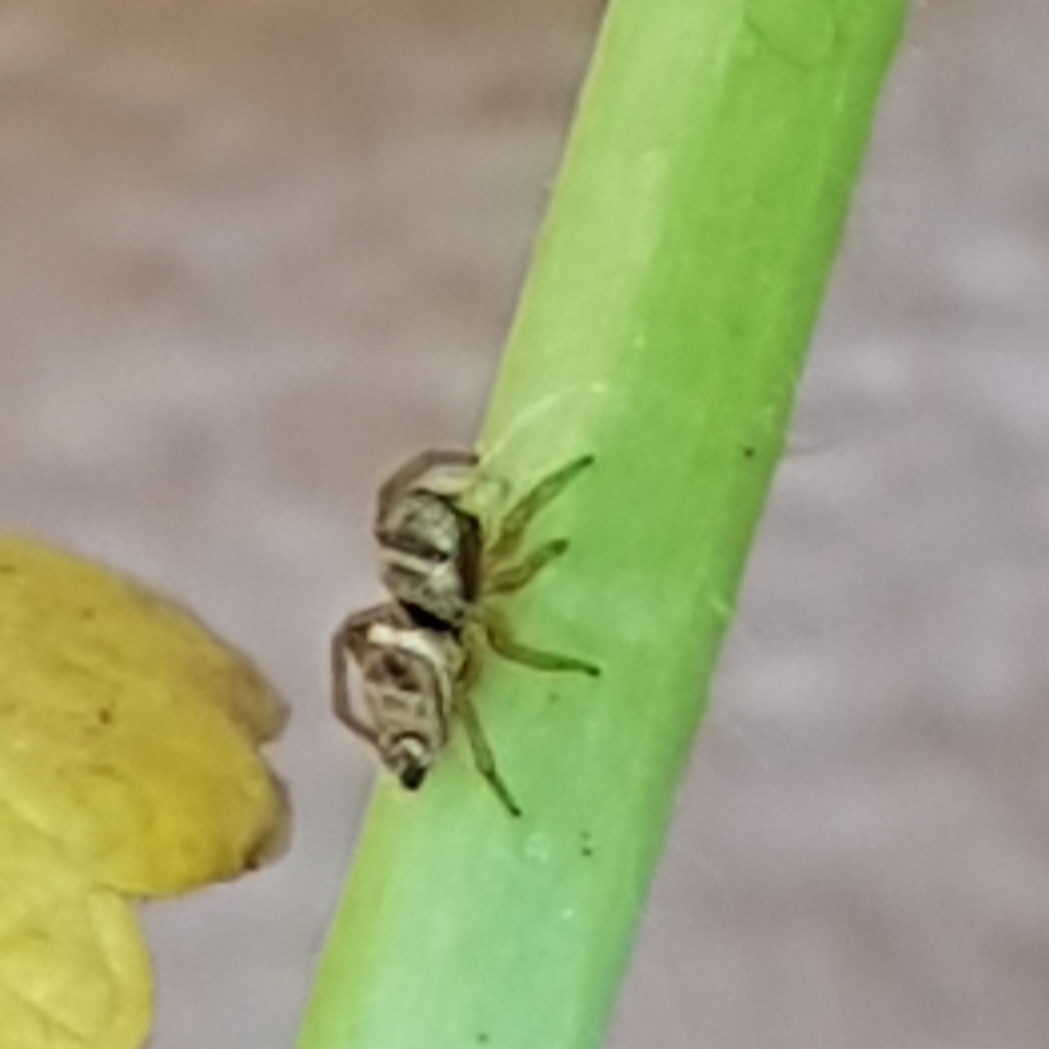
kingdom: Animalia
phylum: Arthropoda
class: Arachnida
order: Araneae
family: Salticidae
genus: Heliophanus
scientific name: Heliophanus tribulosus
